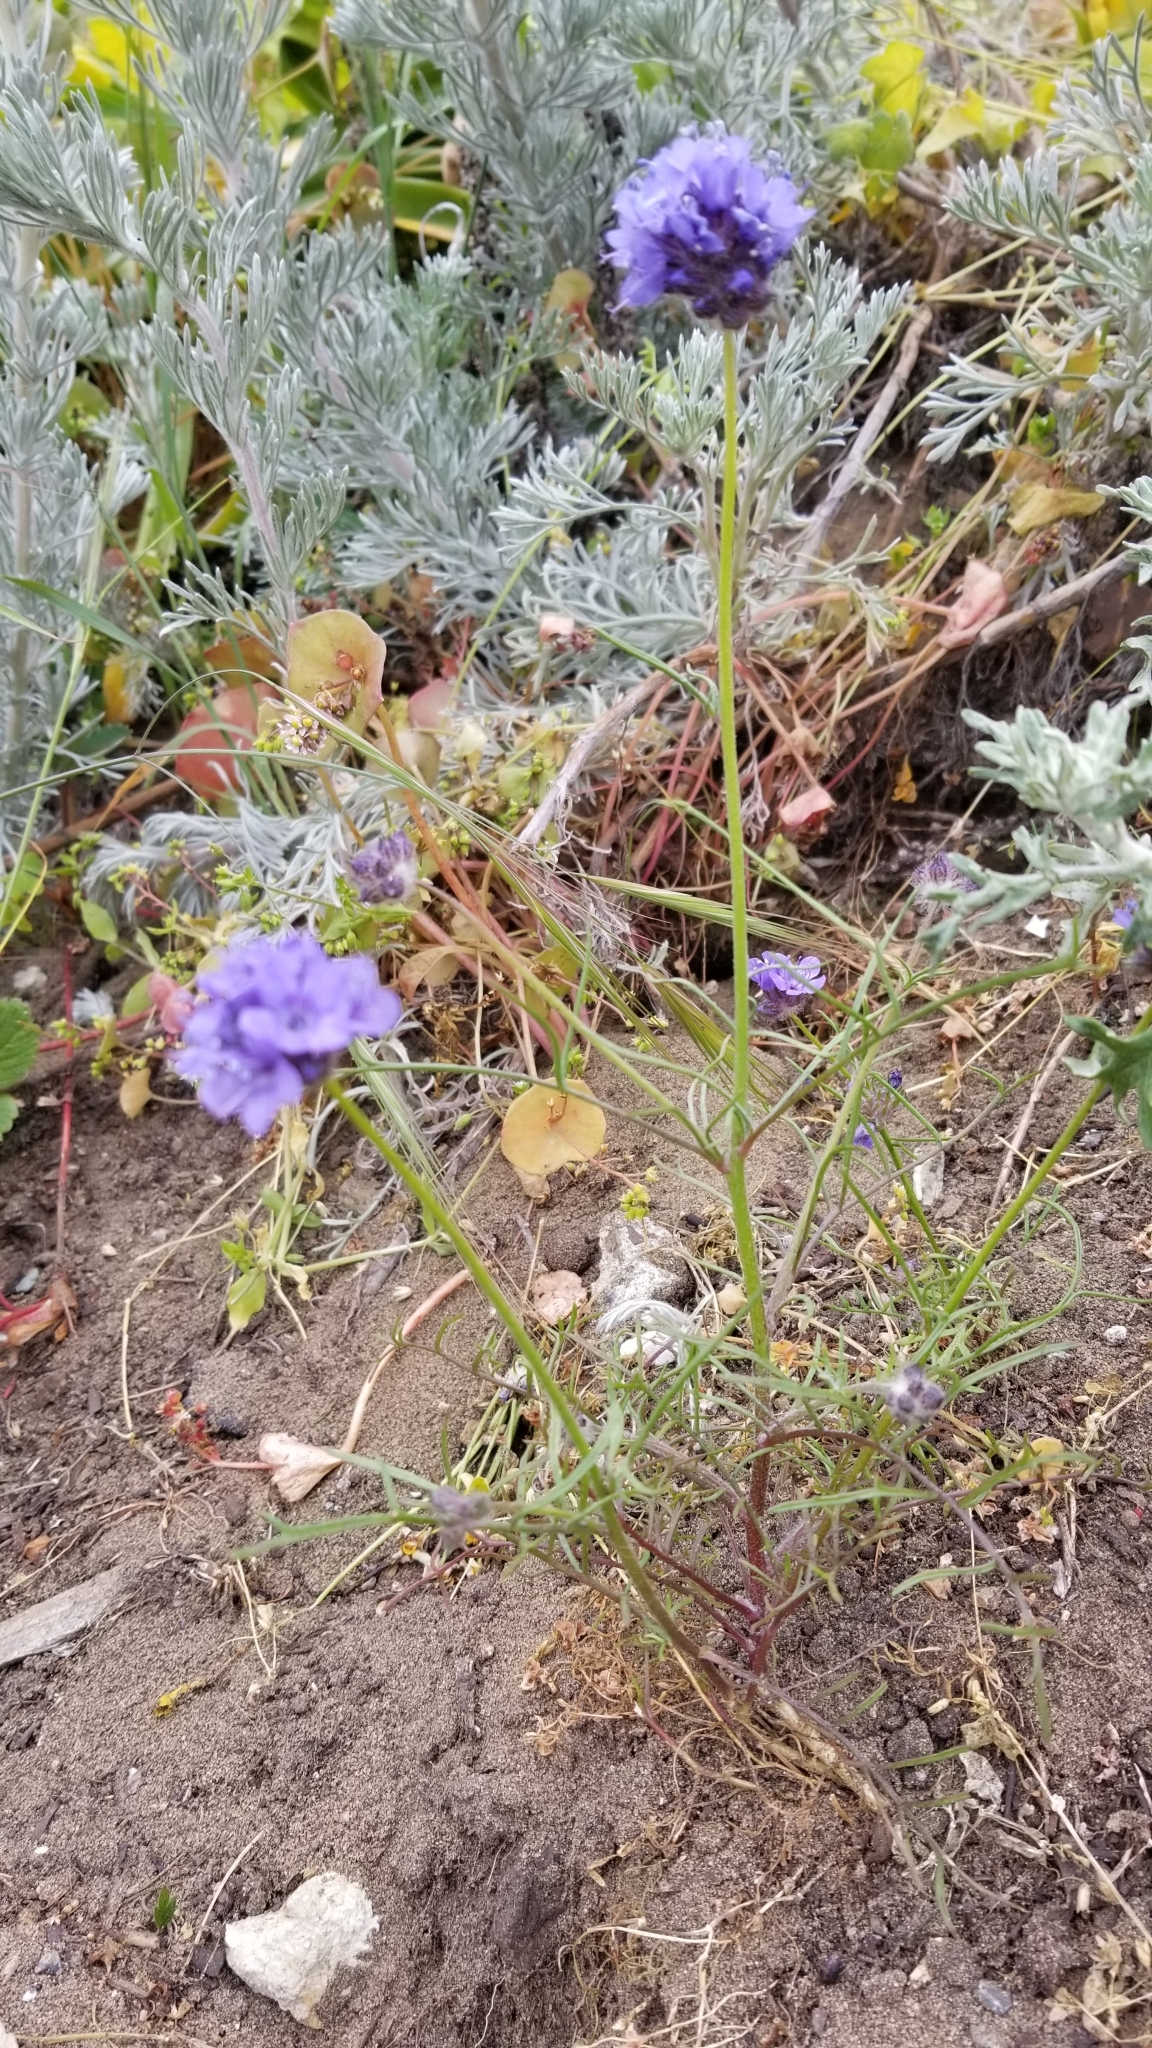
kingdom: Plantae
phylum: Tracheophyta
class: Magnoliopsida
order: Ericales
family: Polemoniaceae
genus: Gilia
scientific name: Gilia capitata
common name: Bluehead gilia
